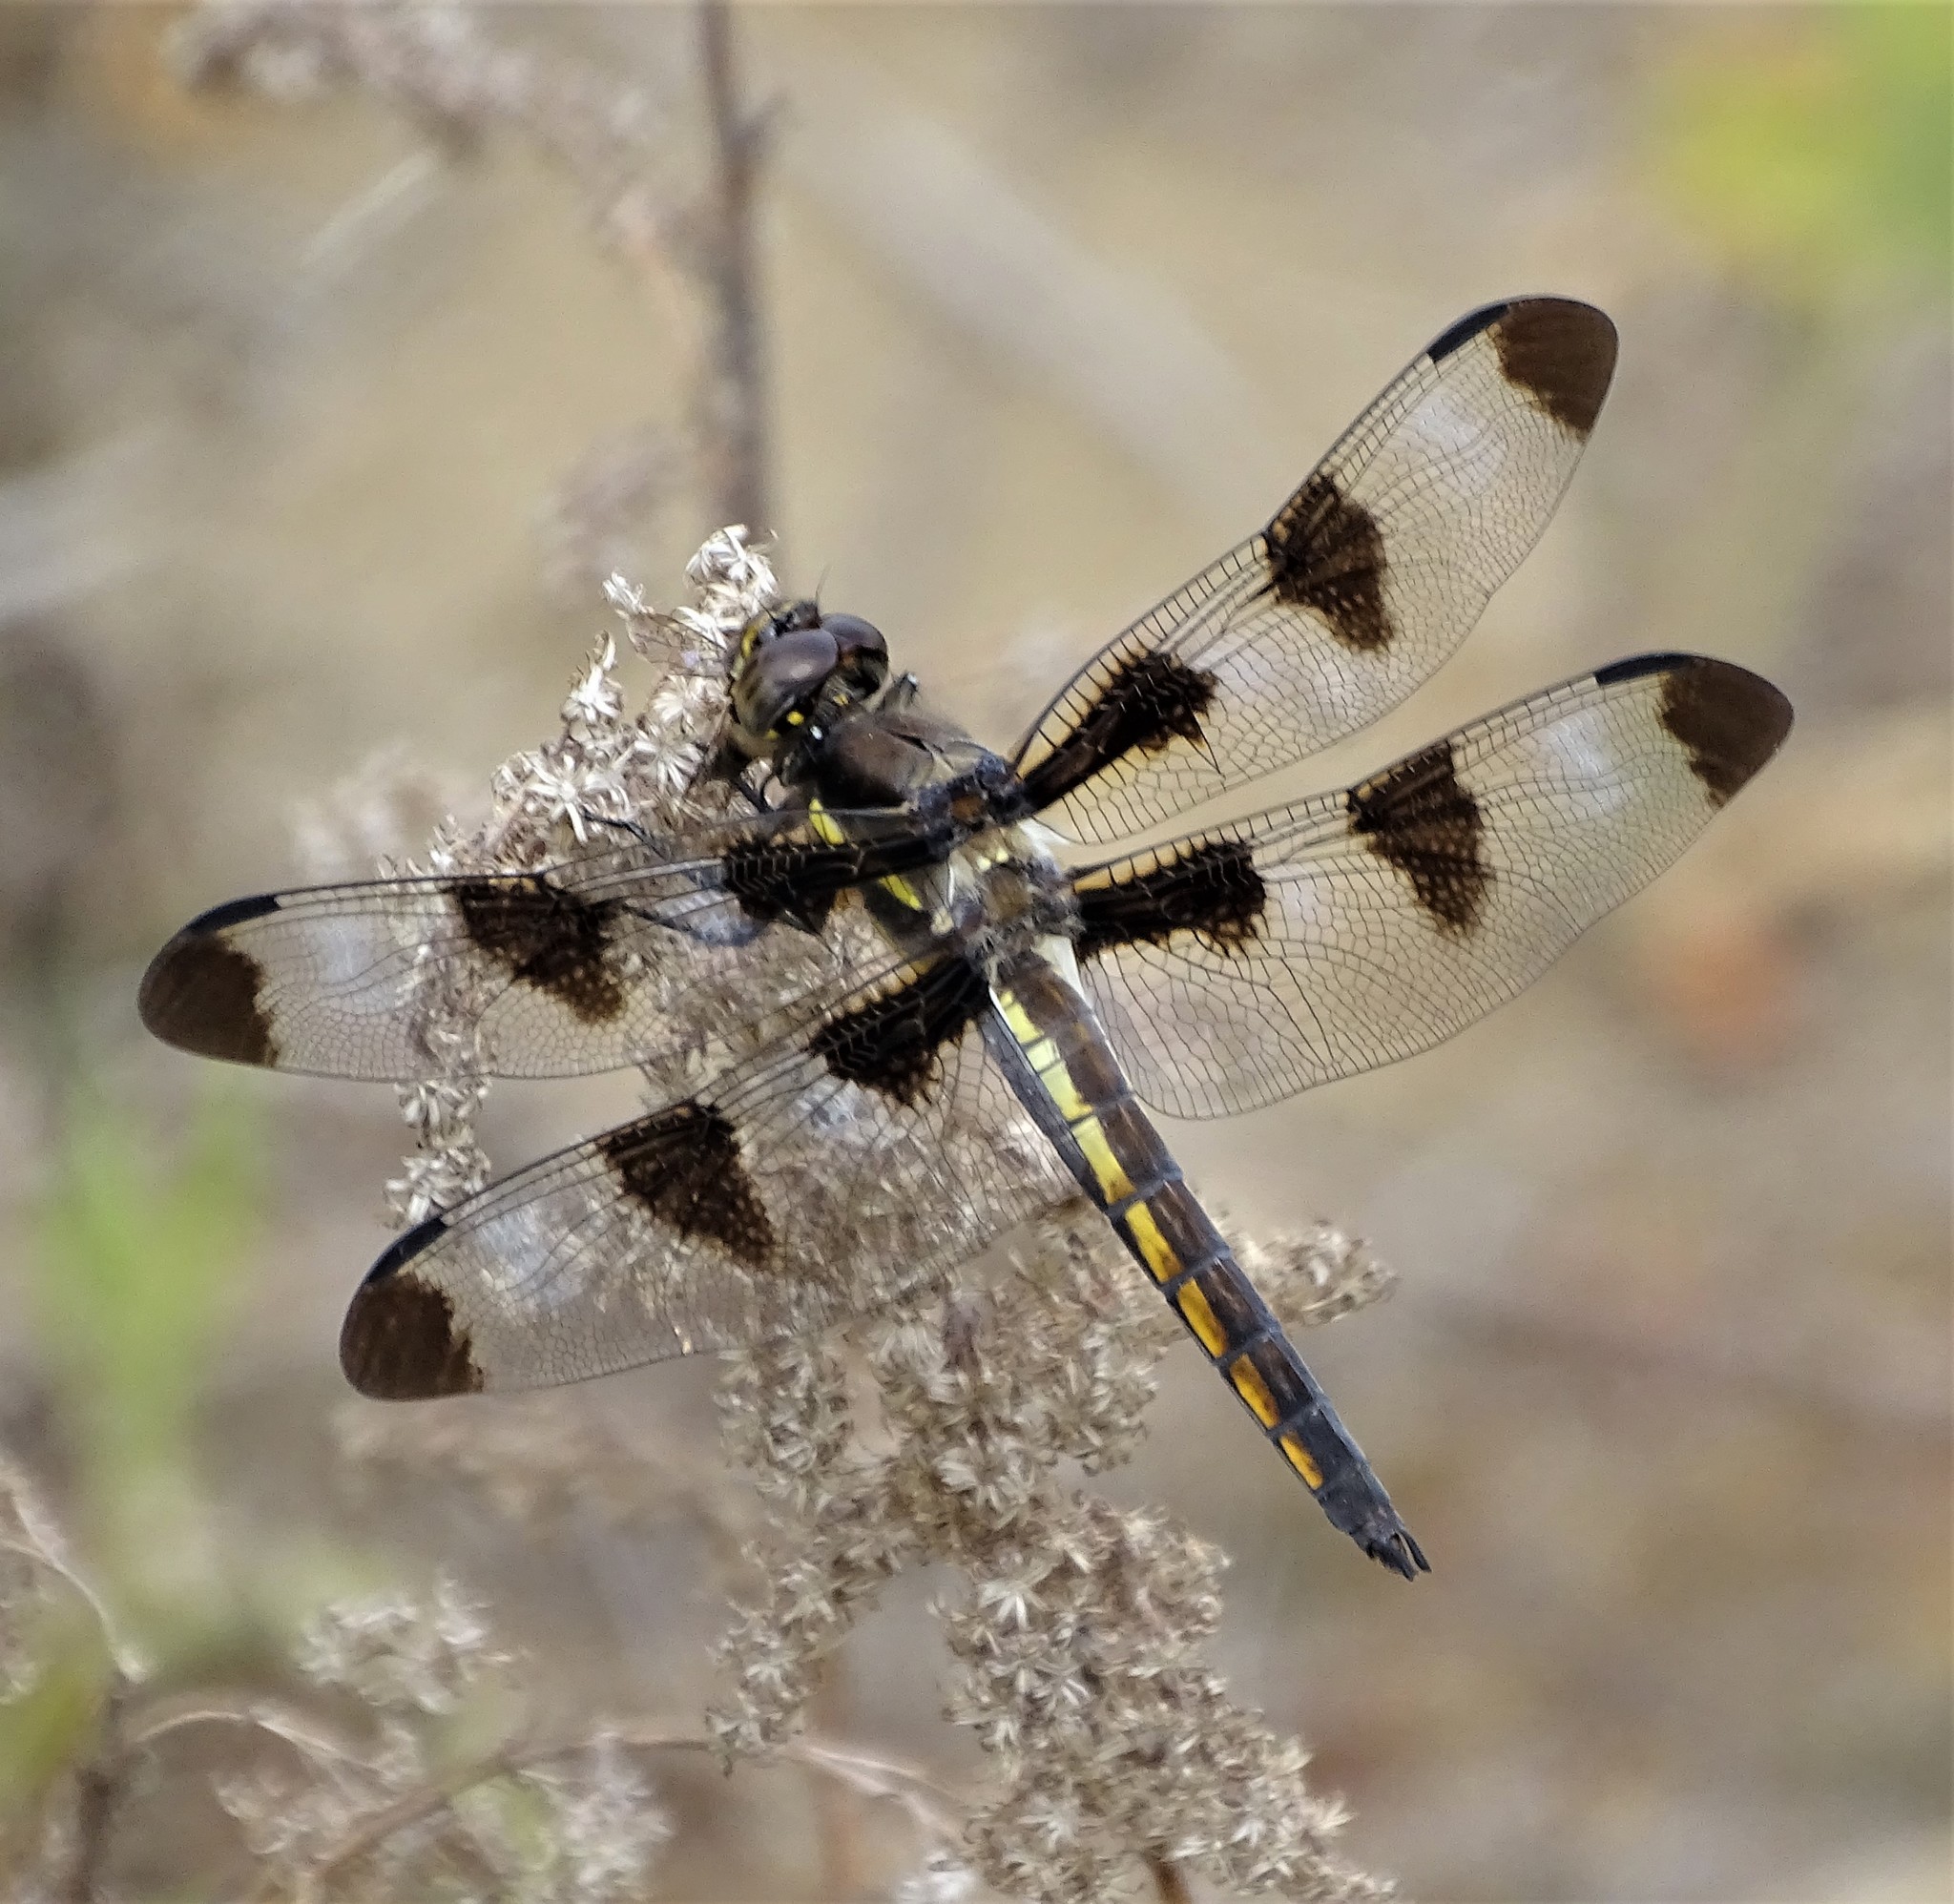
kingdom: Animalia
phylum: Arthropoda
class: Insecta
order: Odonata
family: Libellulidae
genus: Libellula
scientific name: Libellula pulchella
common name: Twelve-spotted skimmer
